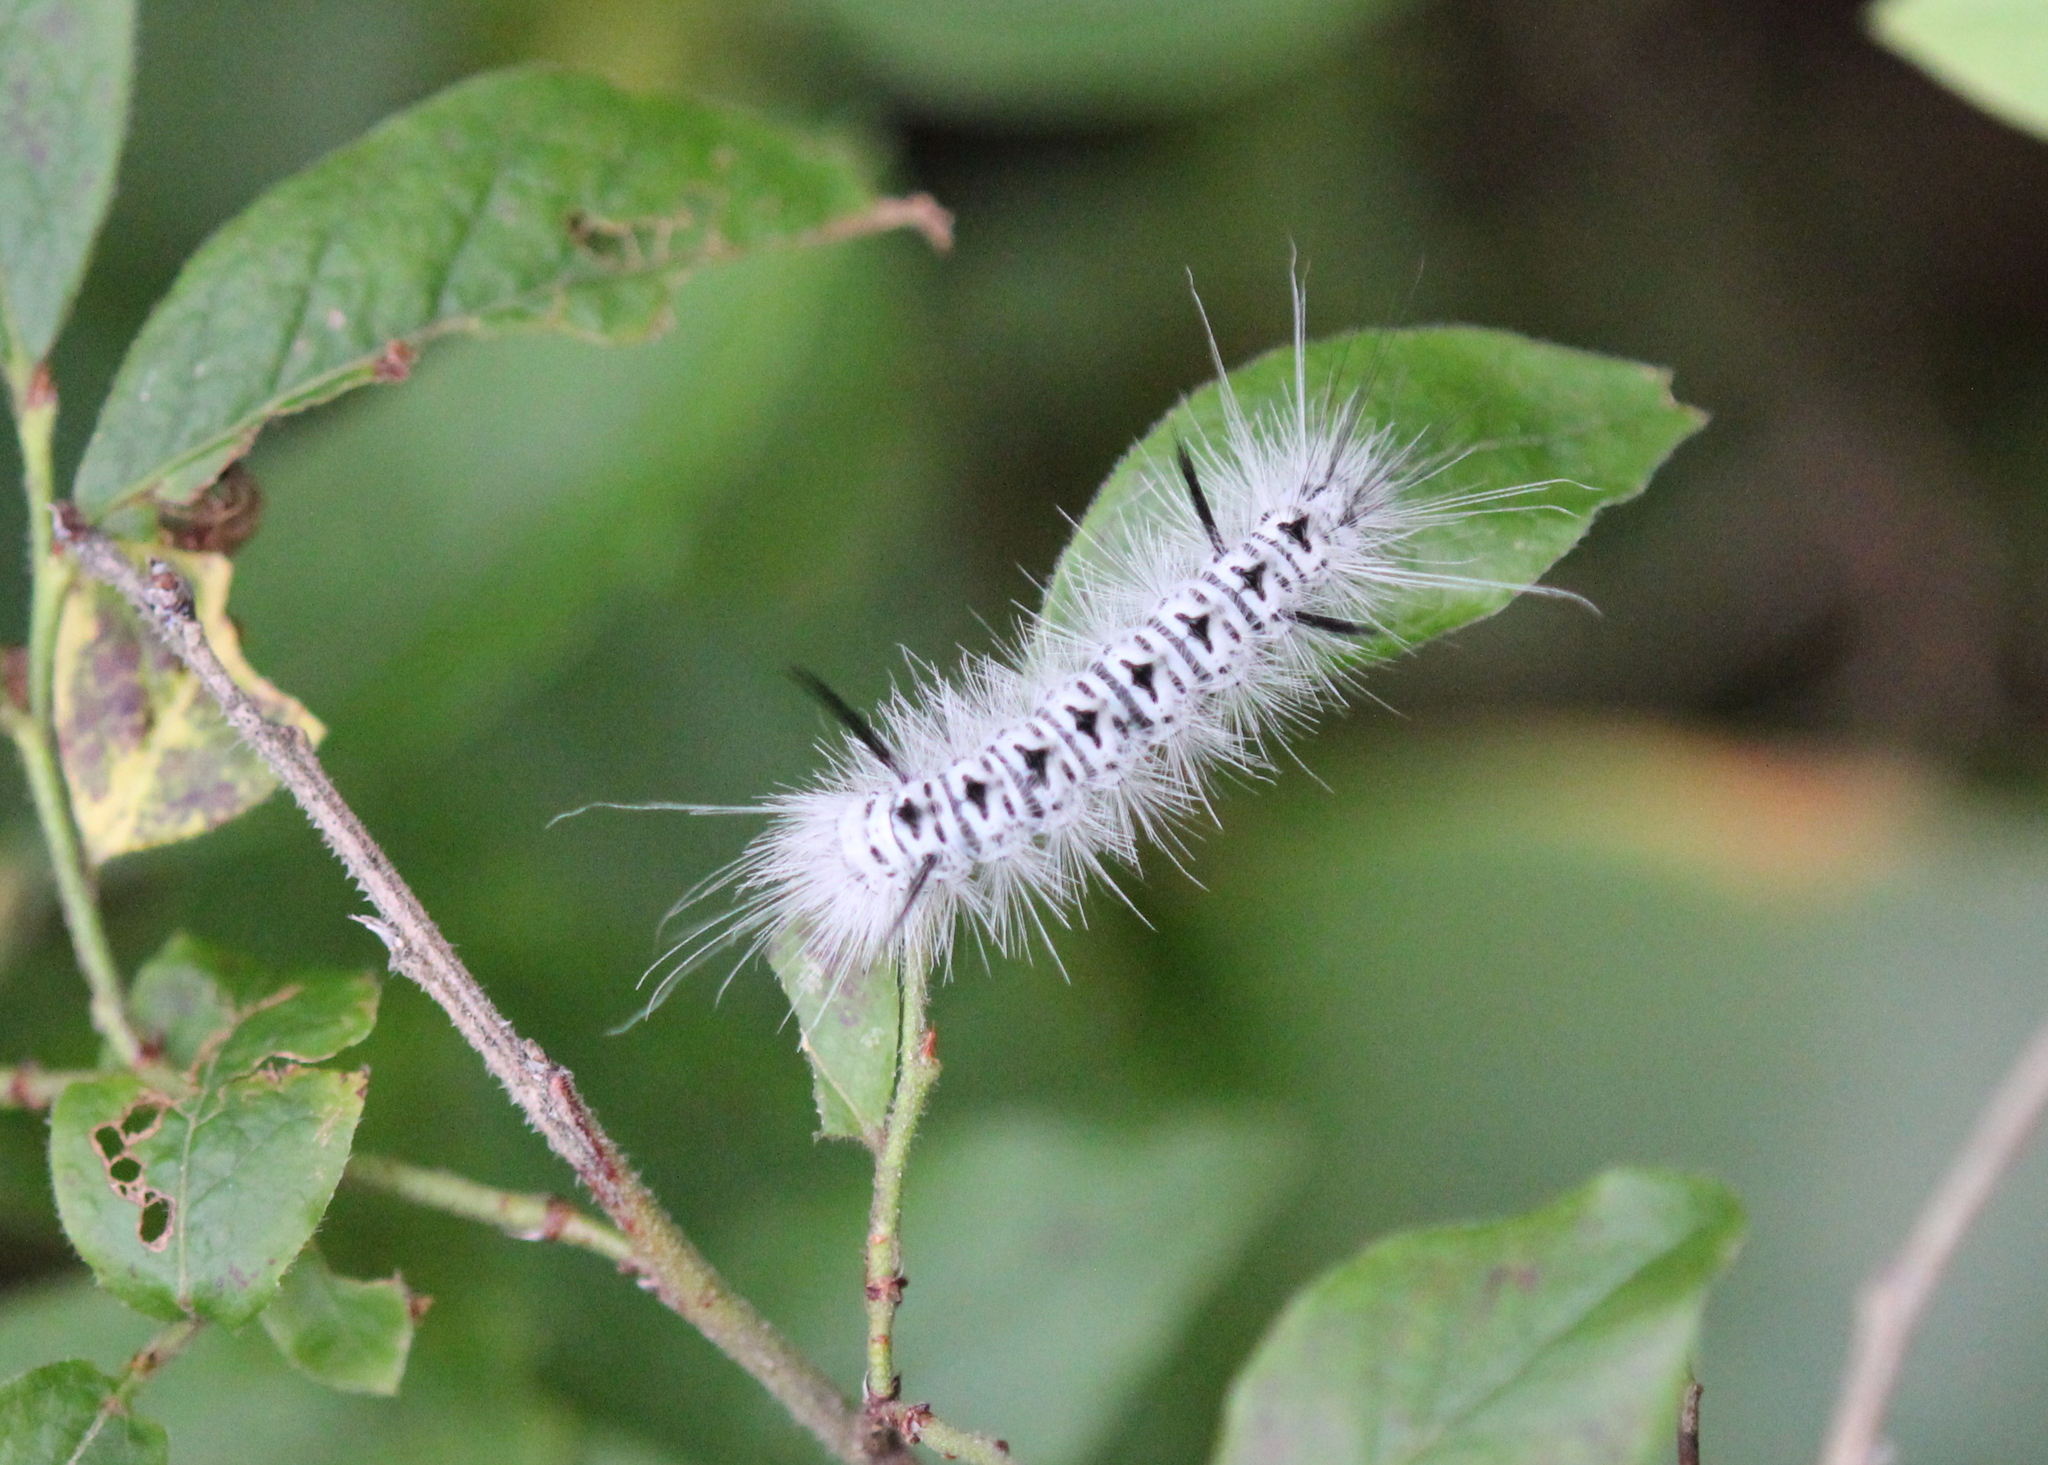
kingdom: Animalia
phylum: Arthropoda
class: Insecta
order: Lepidoptera
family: Erebidae
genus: Lophocampa
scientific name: Lophocampa caryae
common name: Hickory tussock moth
